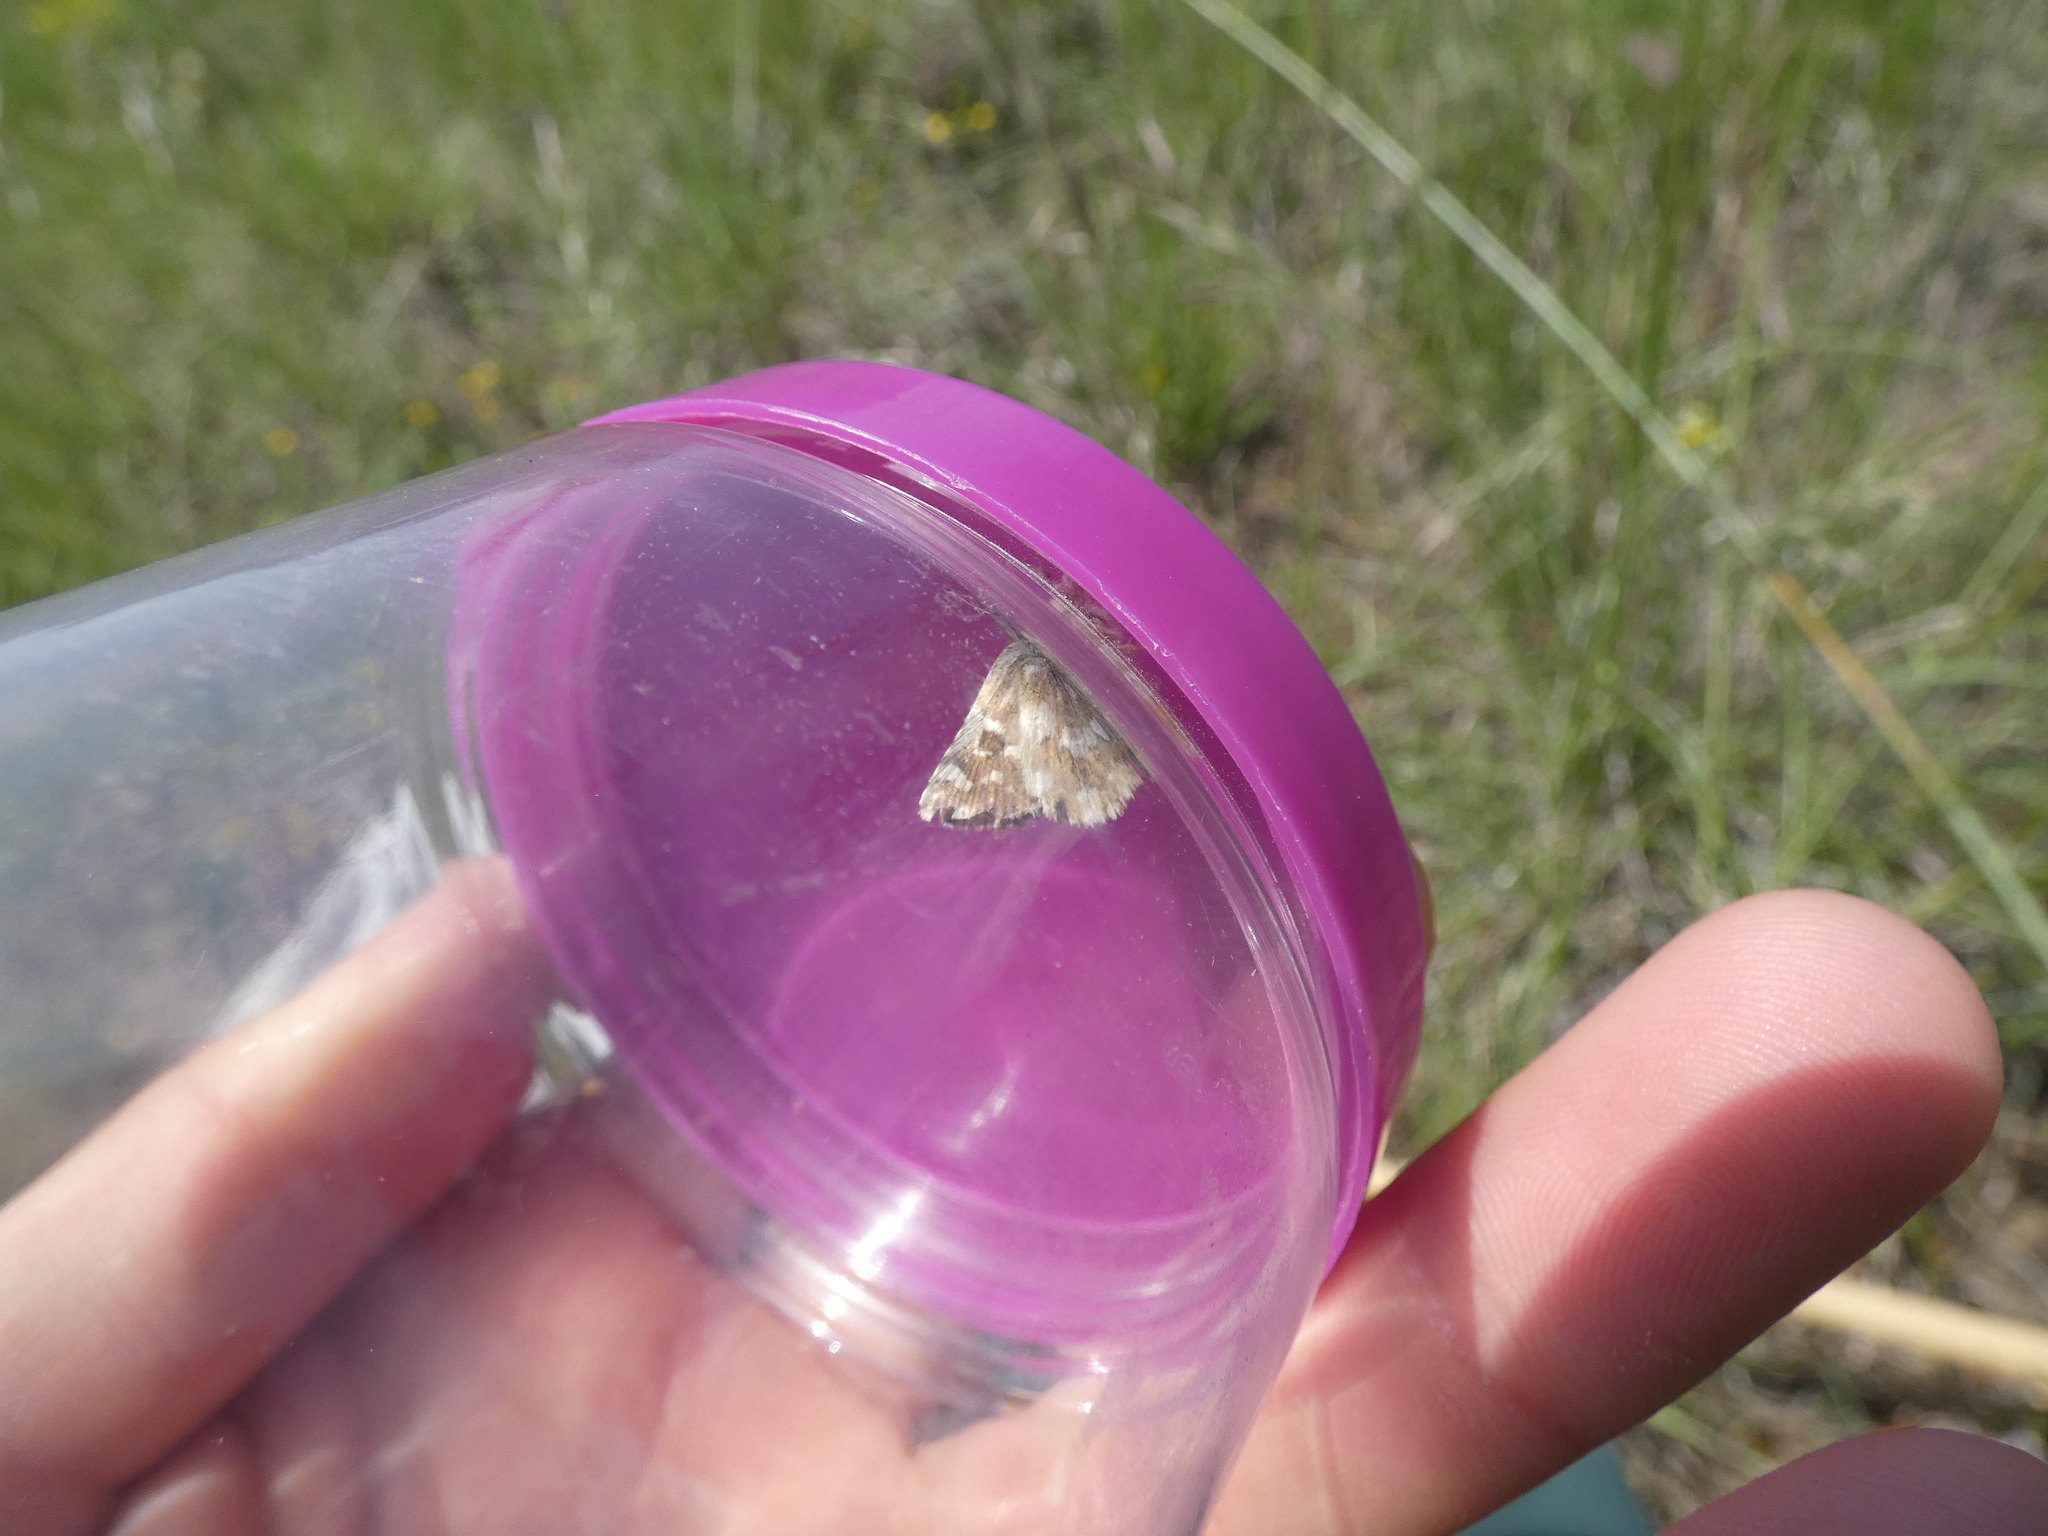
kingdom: Animalia
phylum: Arthropoda
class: Insecta
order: Lepidoptera
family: Hesperiidae
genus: Spialia
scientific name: Spialia sertorius
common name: Red underwing skipper
